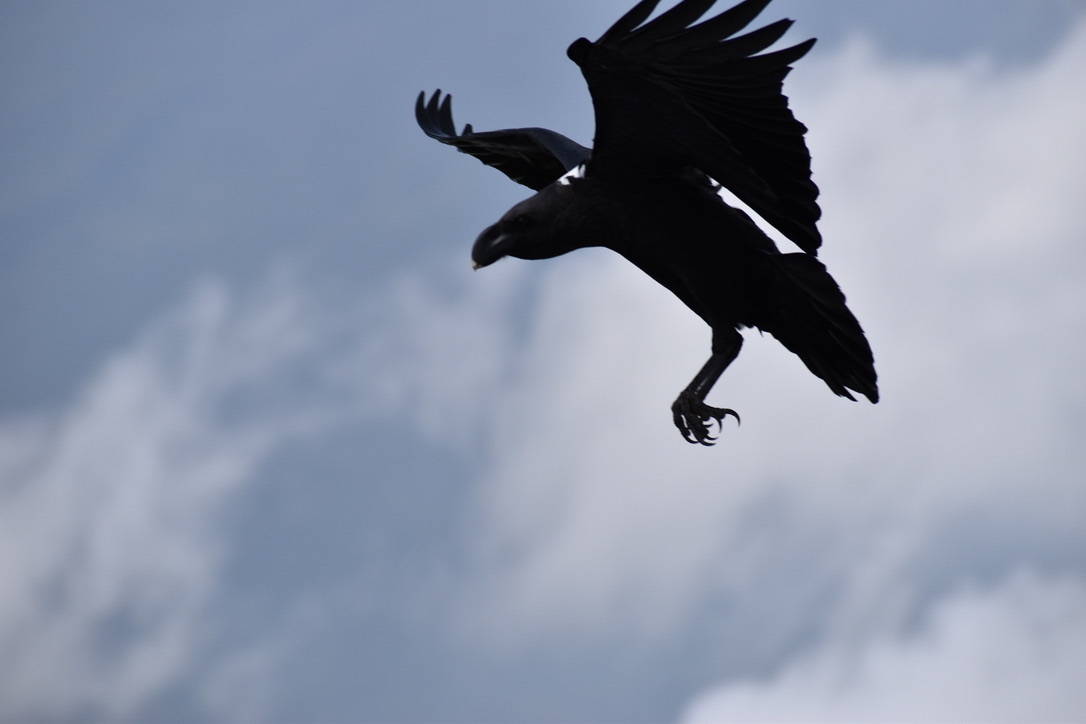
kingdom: Animalia
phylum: Chordata
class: Aves
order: Passeriformes
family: Corvidae
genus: Corvus
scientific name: Corvus albicollis
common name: White-necked raven
